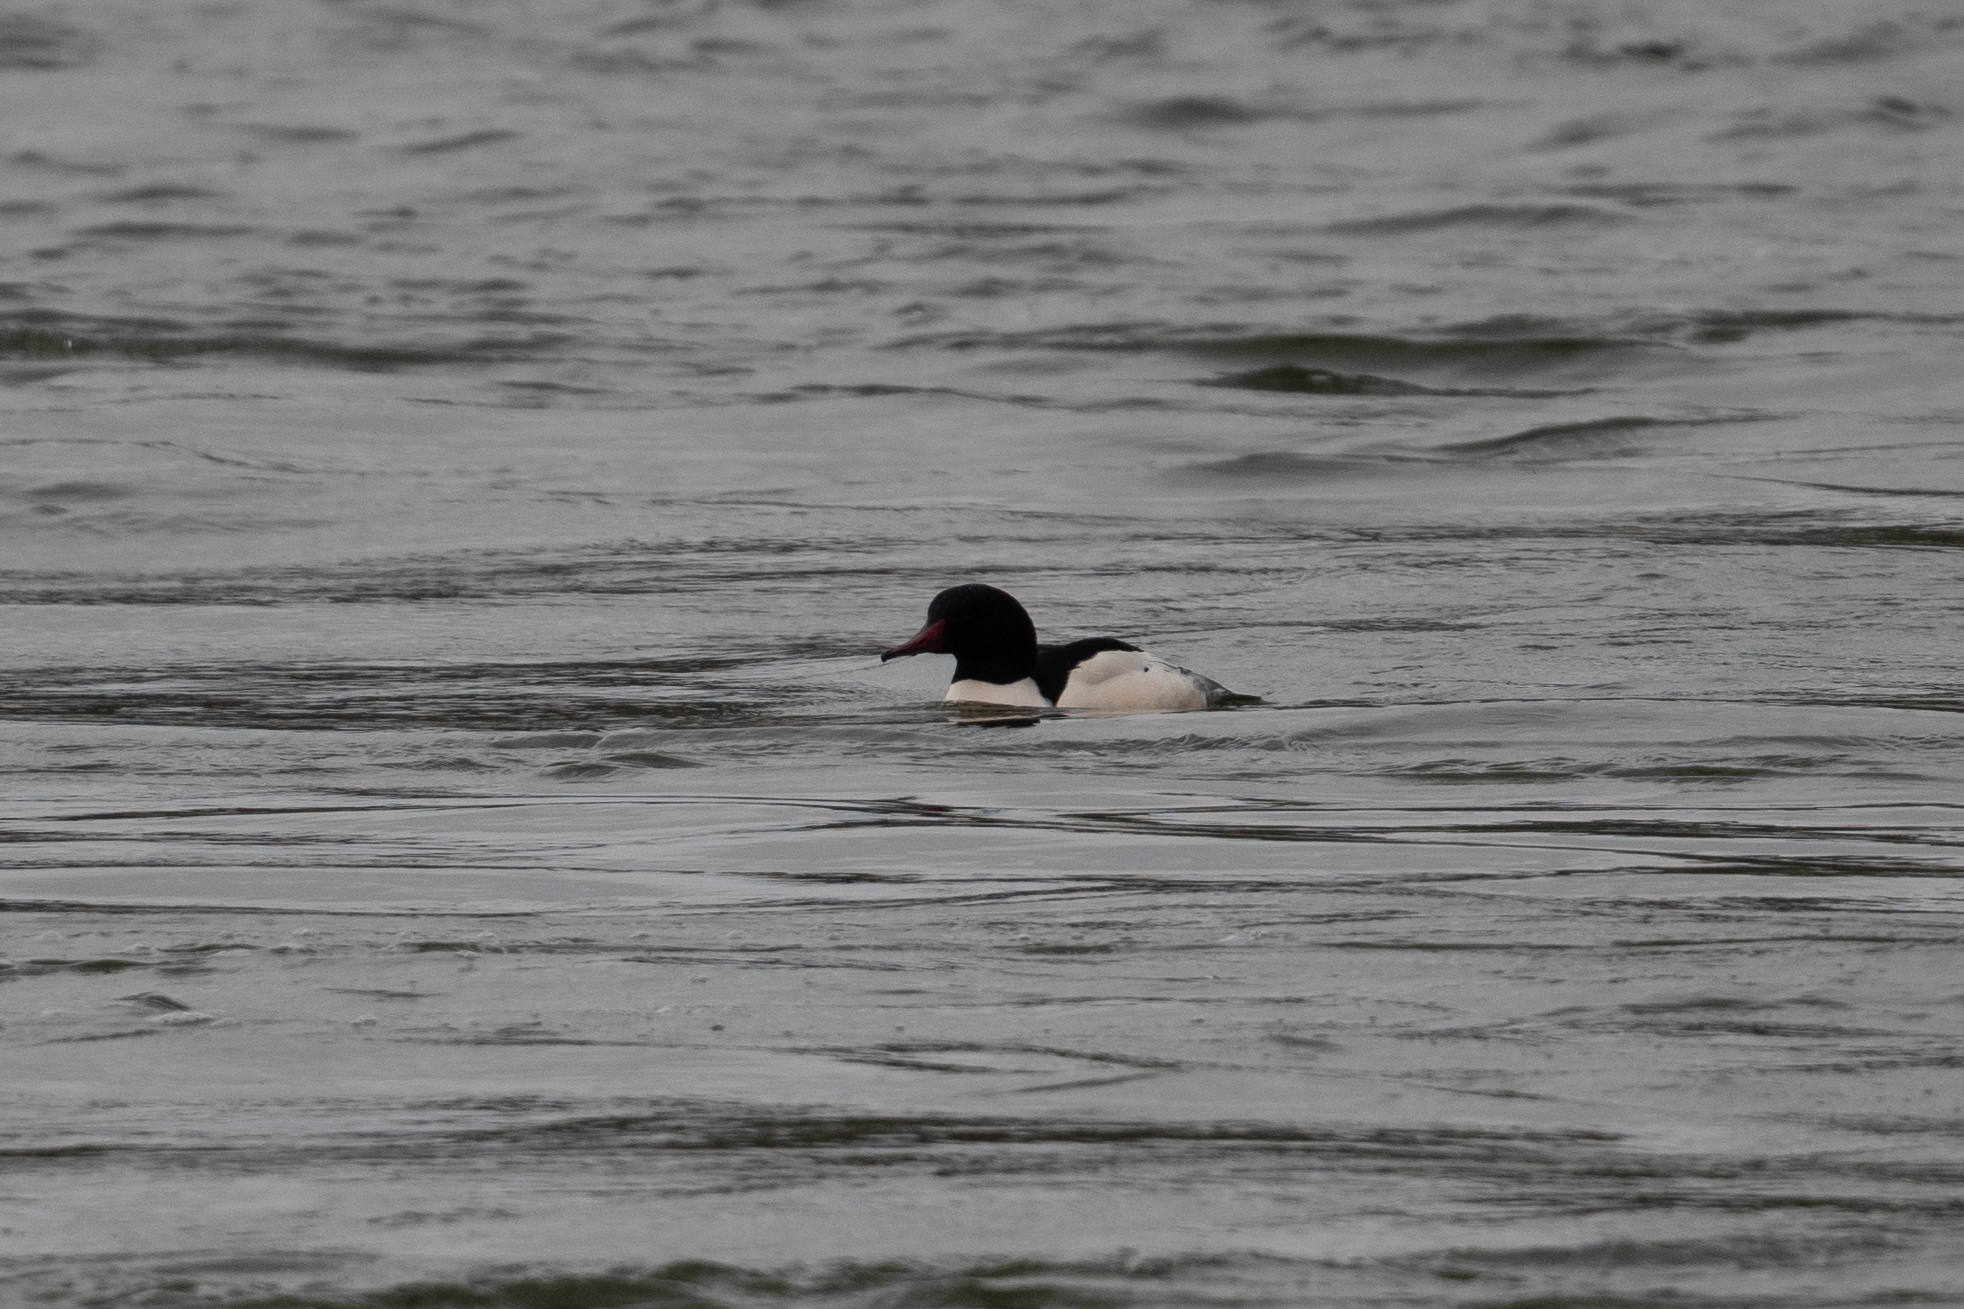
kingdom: Animalia
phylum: Chordata
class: Aves
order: Anseriformes
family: Anatidae
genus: Mergus
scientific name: Mergus merganser
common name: Common merganser
